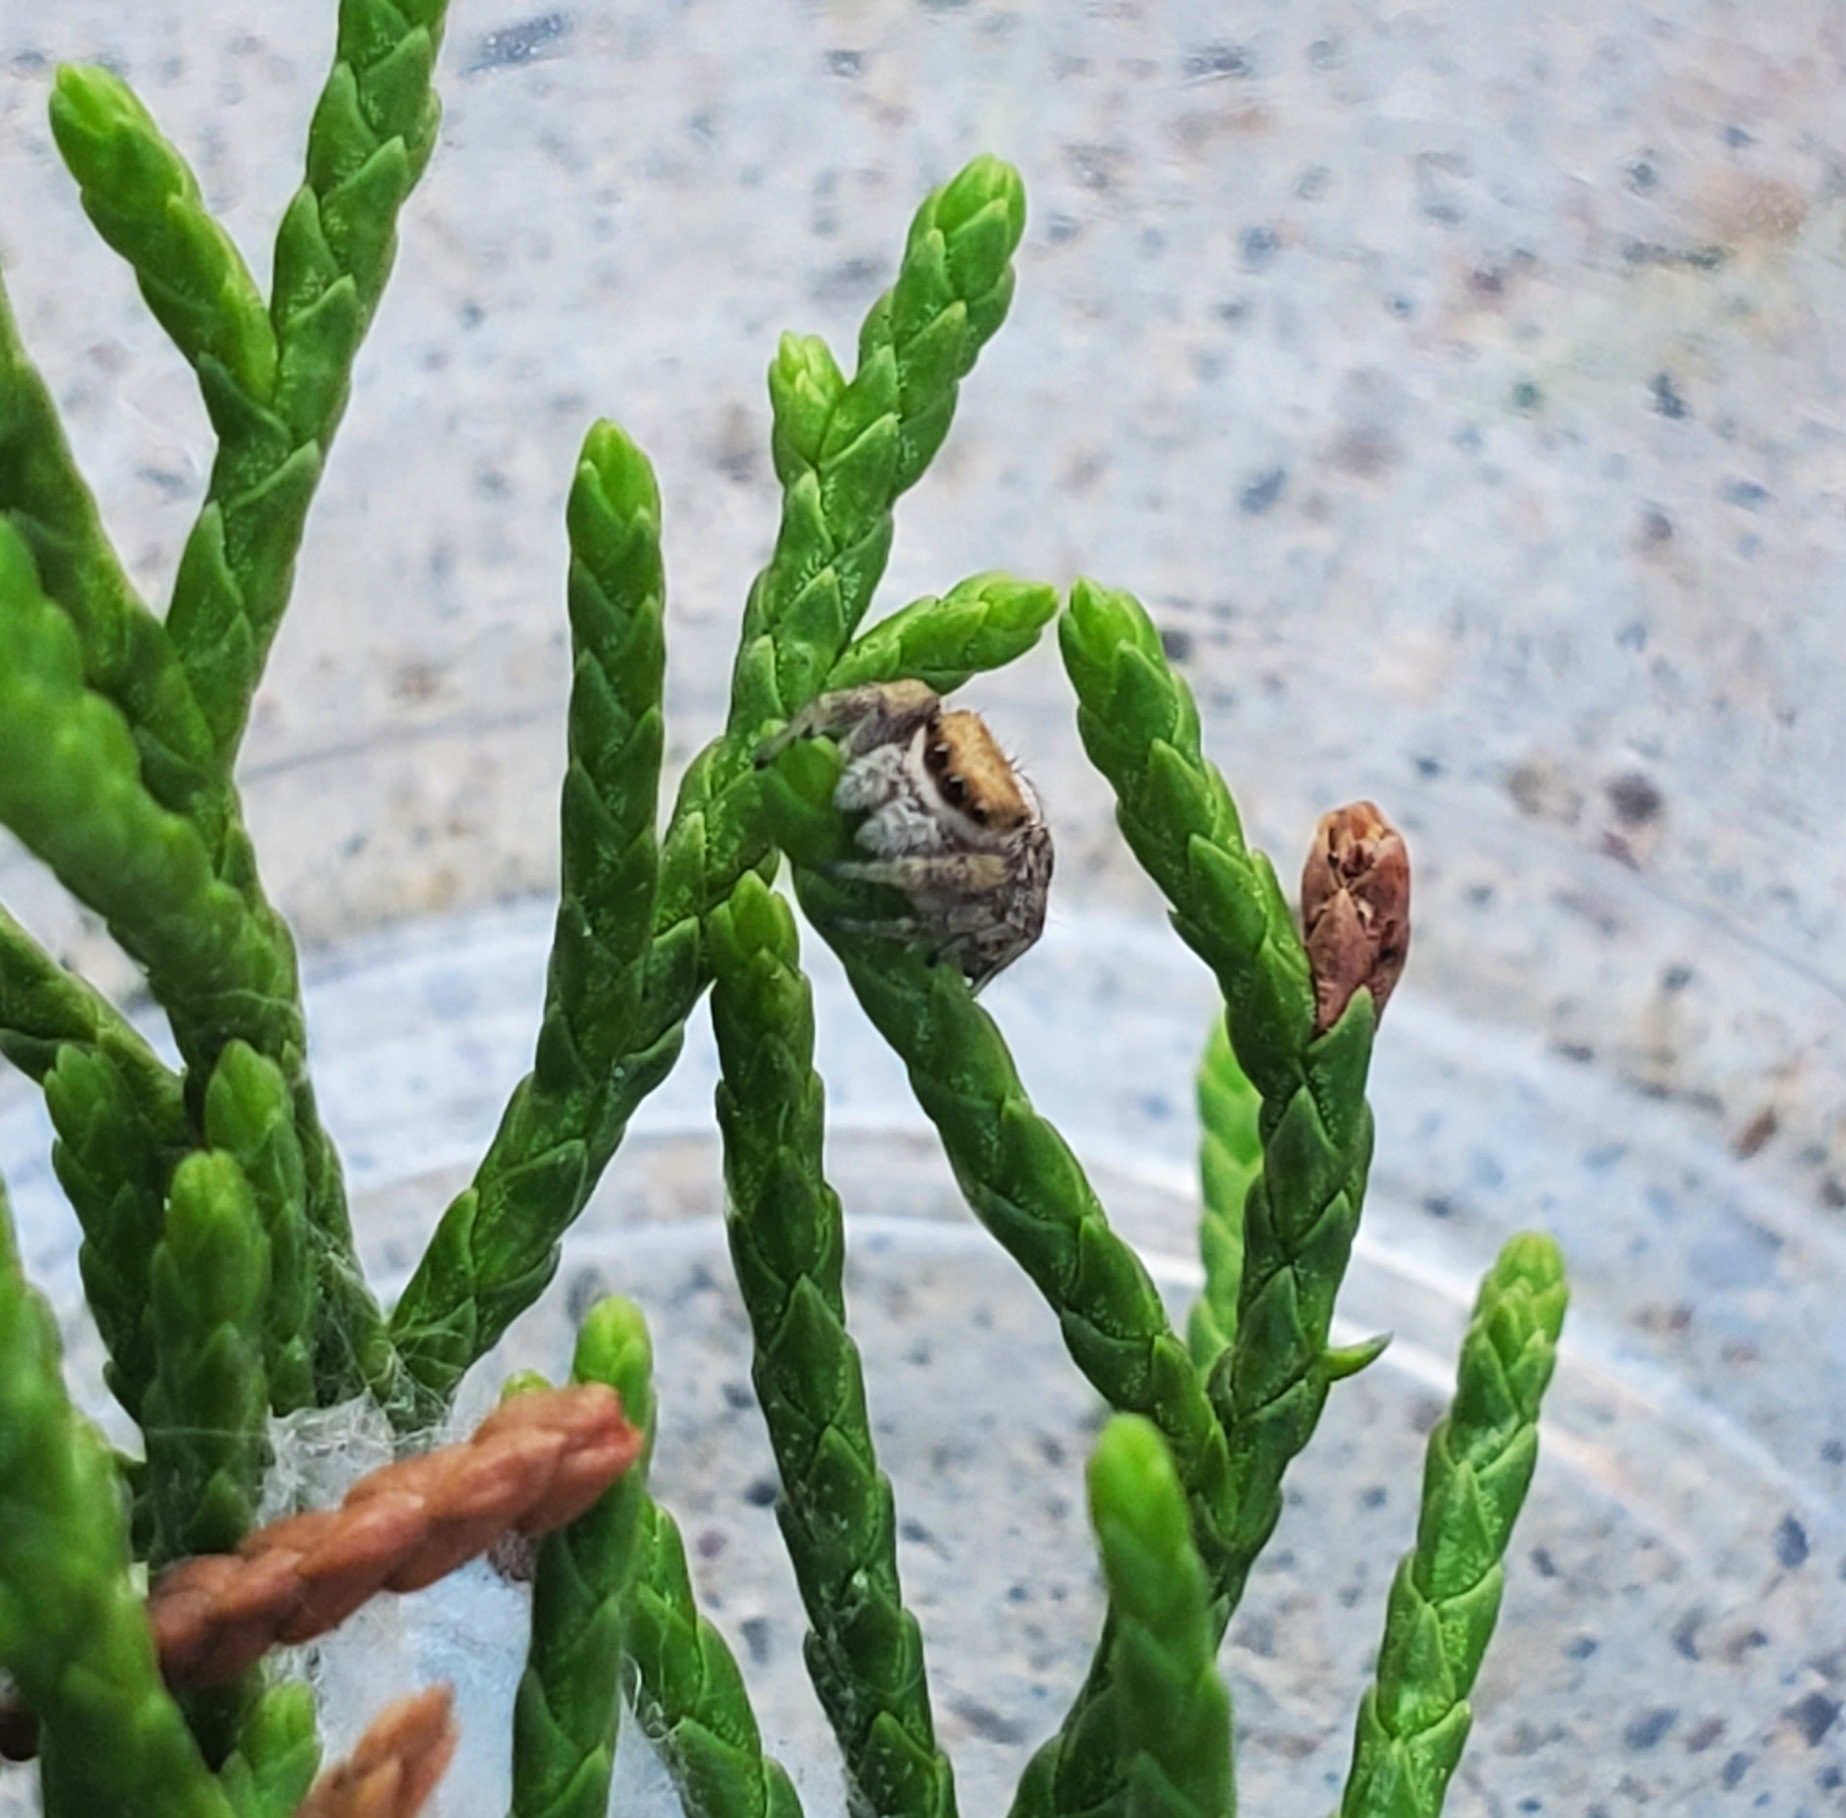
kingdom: Animalia
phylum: Arthropoda
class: Arachnida
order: Araneae
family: Salticidae
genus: Pelegrina
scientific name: Pelegrina pervaga
